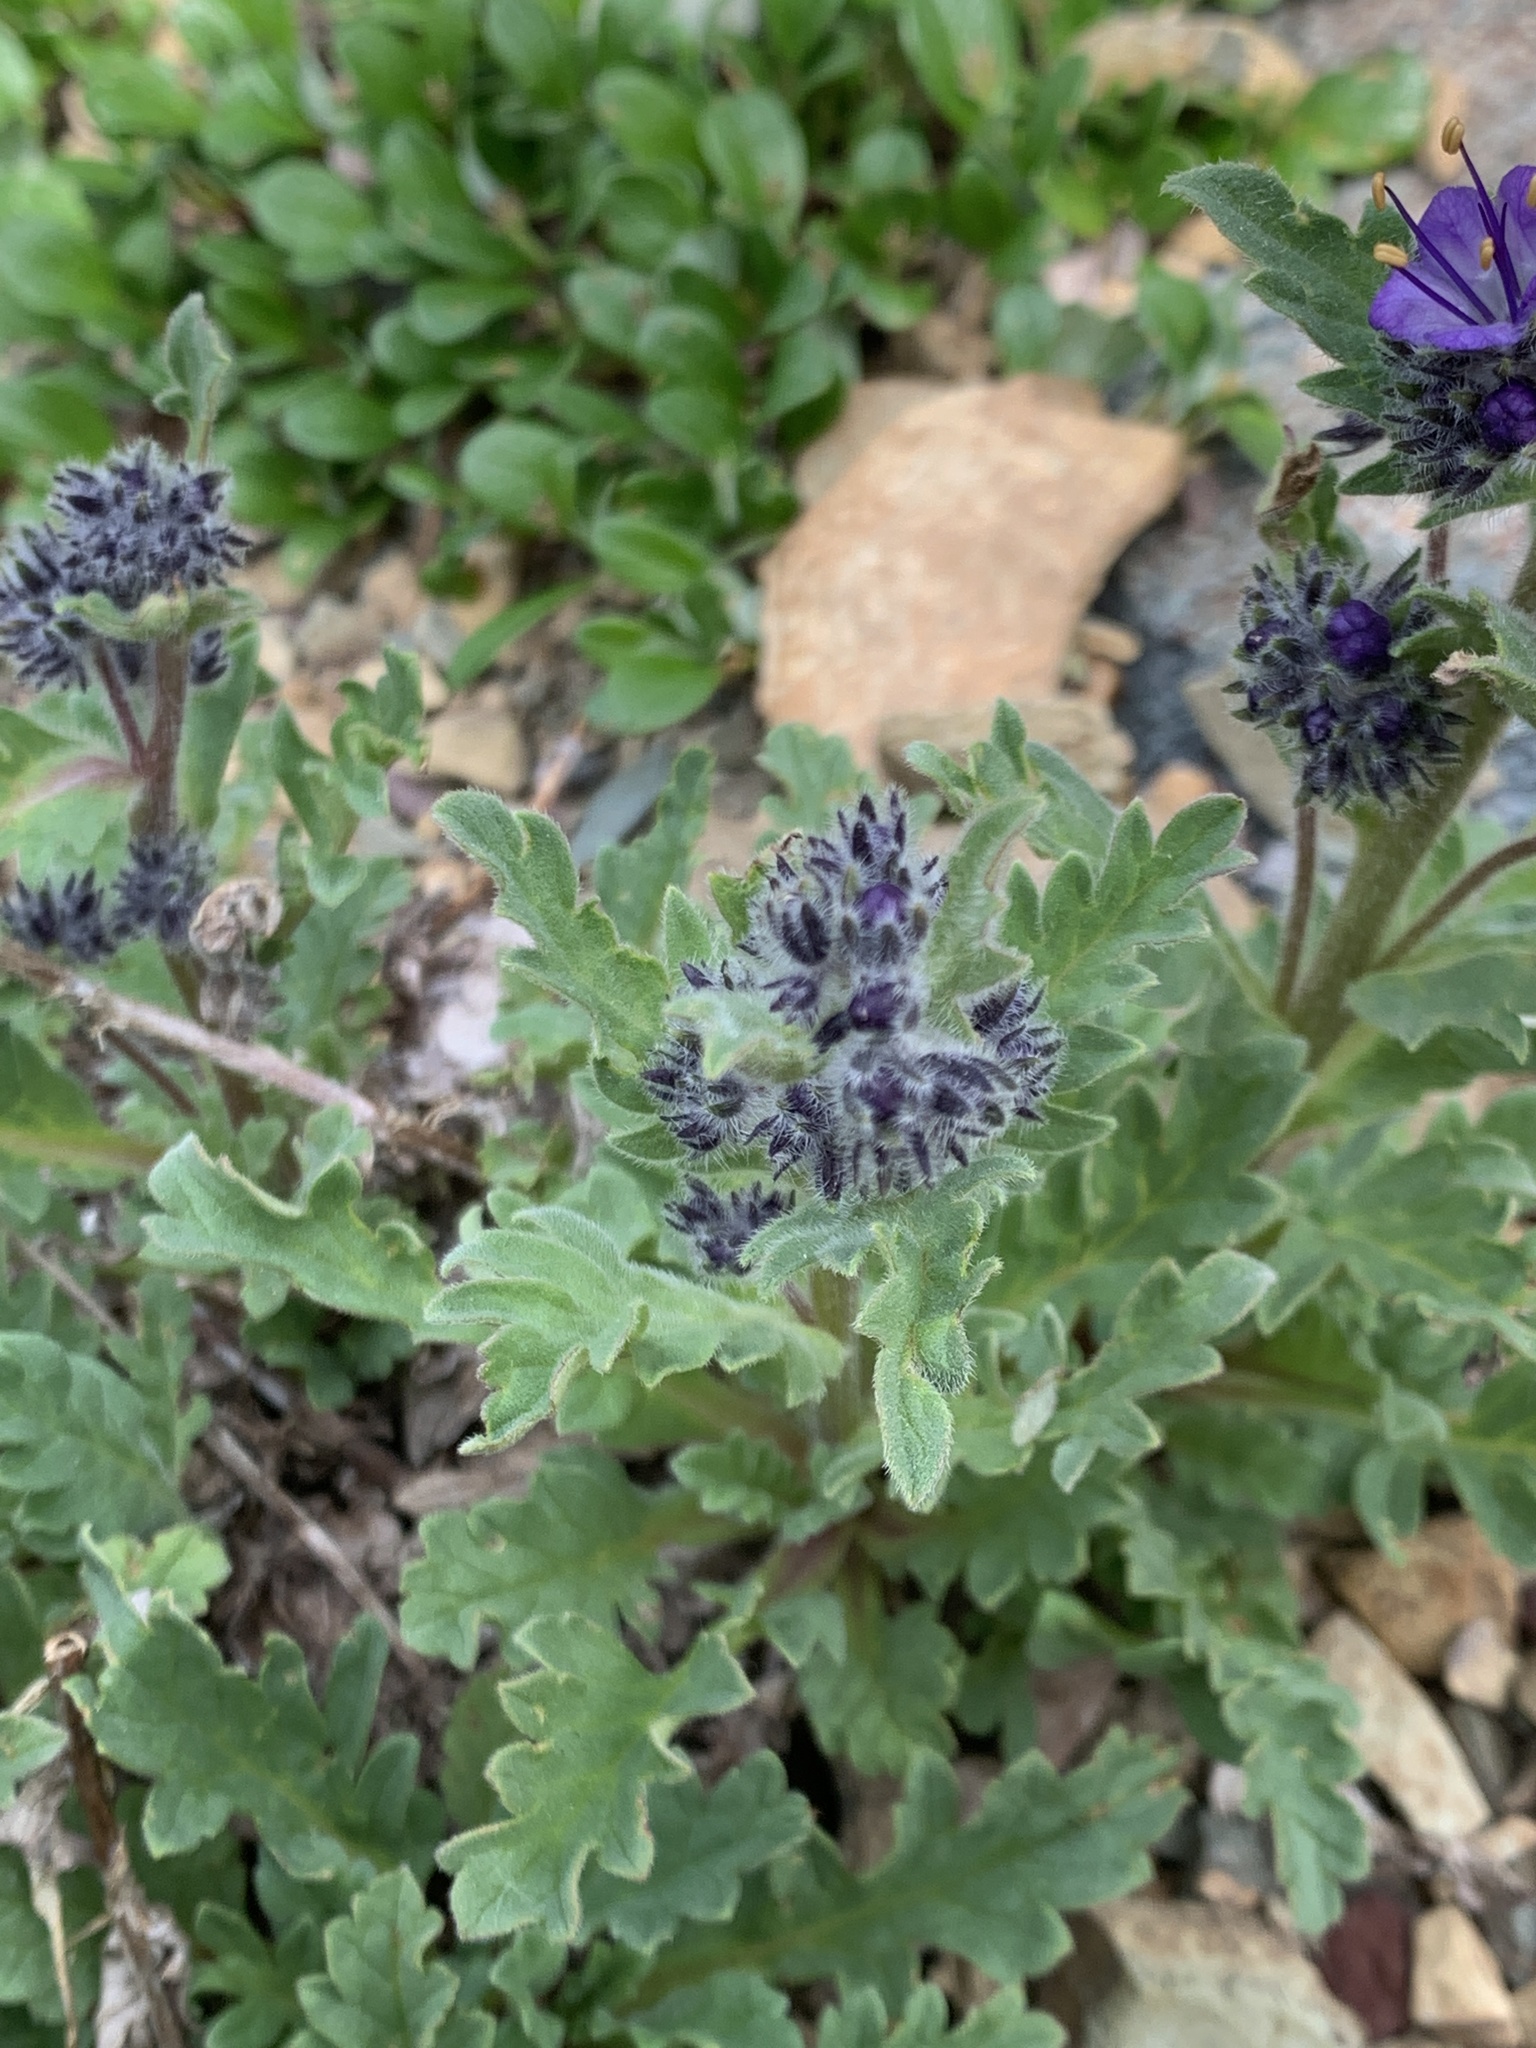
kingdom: Plantae
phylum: Tracheophyta
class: Magnoliopsida
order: Boraginales
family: Hydrophyllaceae
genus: Phacelia
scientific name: Phacelia lyallii
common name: Lyall's phacelia
